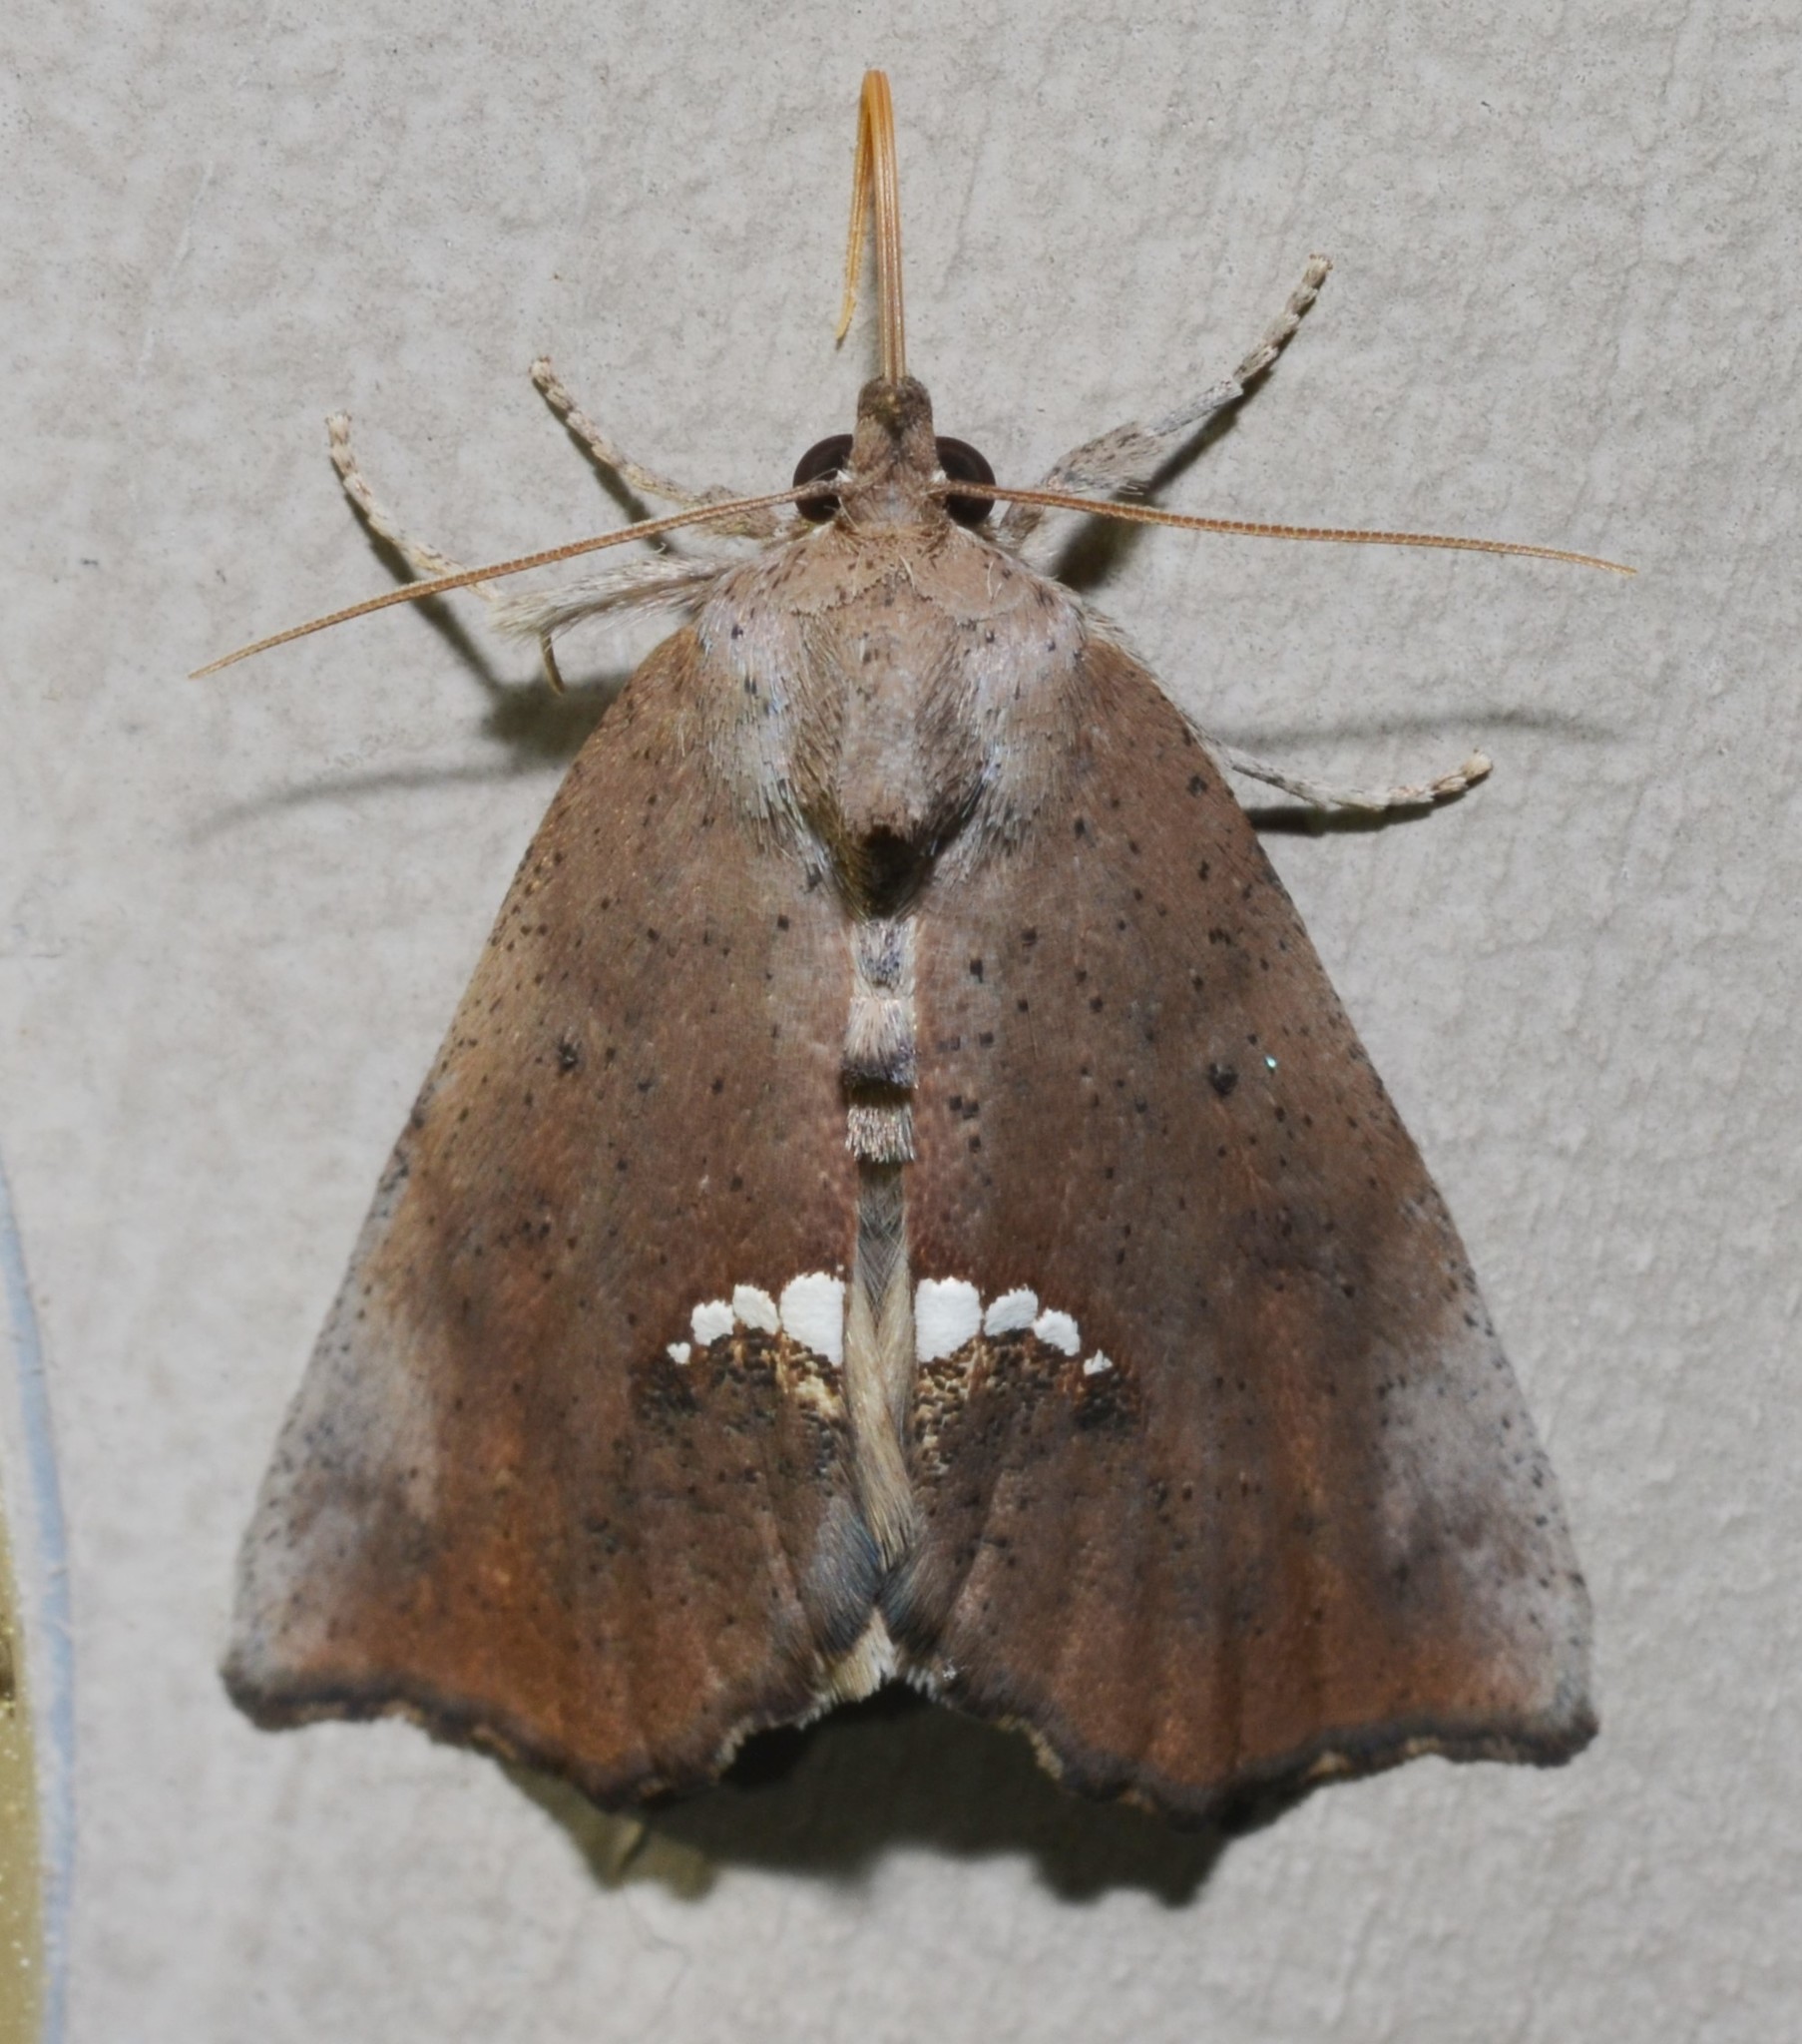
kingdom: Animalia
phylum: Arthropoda
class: Insecta
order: Lepidoptera
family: Erebidae
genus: Hypsoropha
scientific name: Hypsoropha hormos
